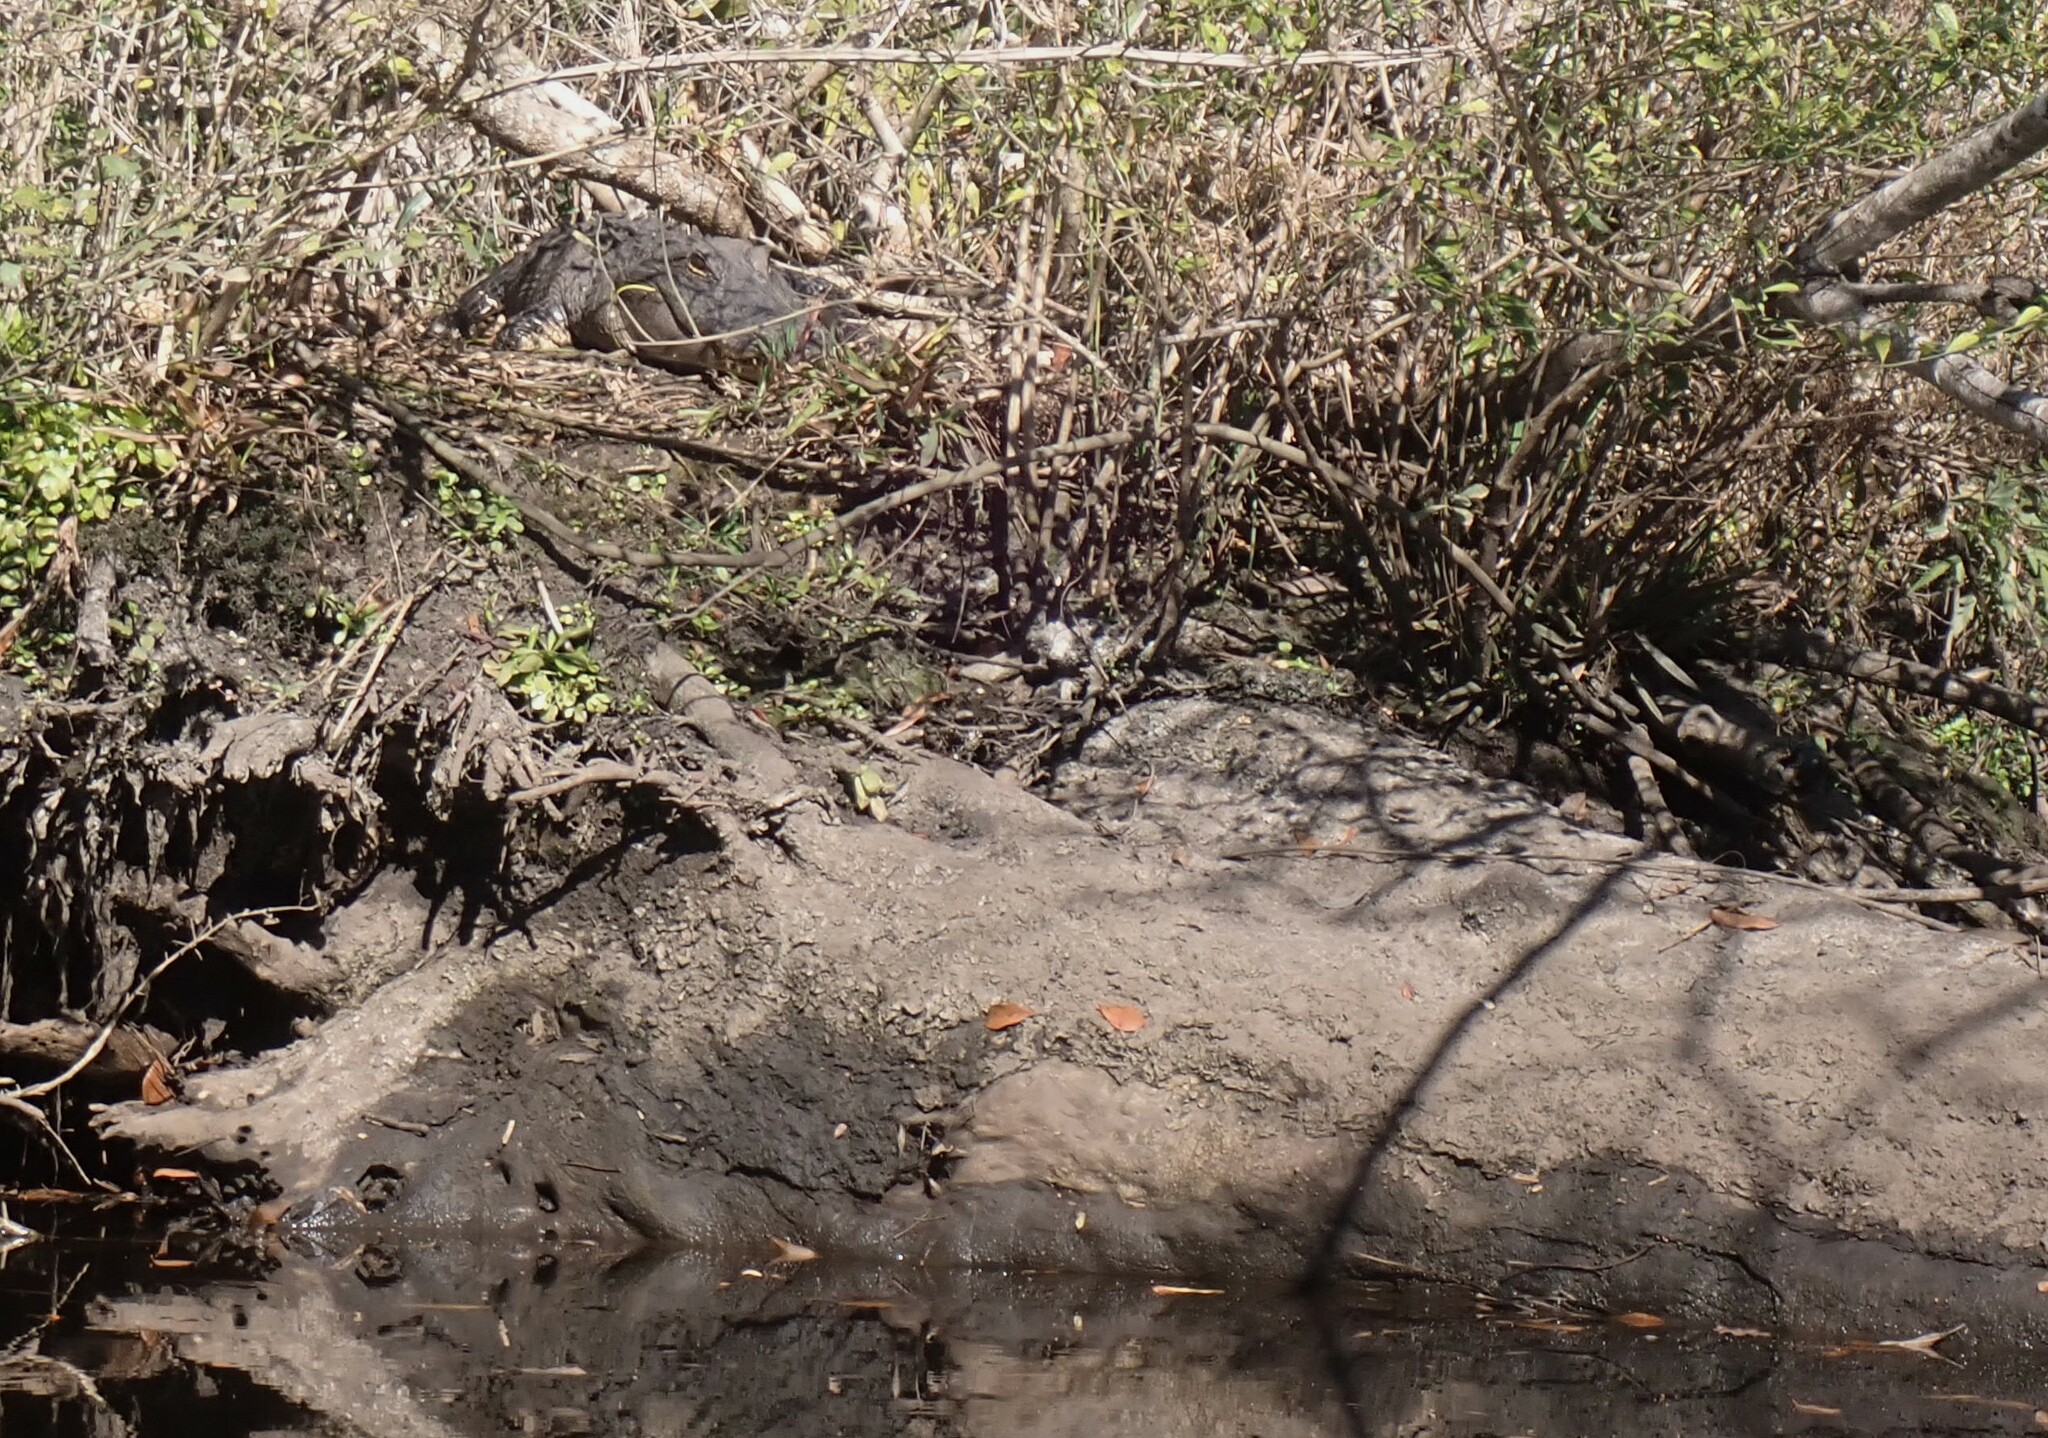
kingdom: Animalia
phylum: Chordata
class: Crocodylia
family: Alligatoridae
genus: Alligator
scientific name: Alligator mississippiensis
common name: American alligator
